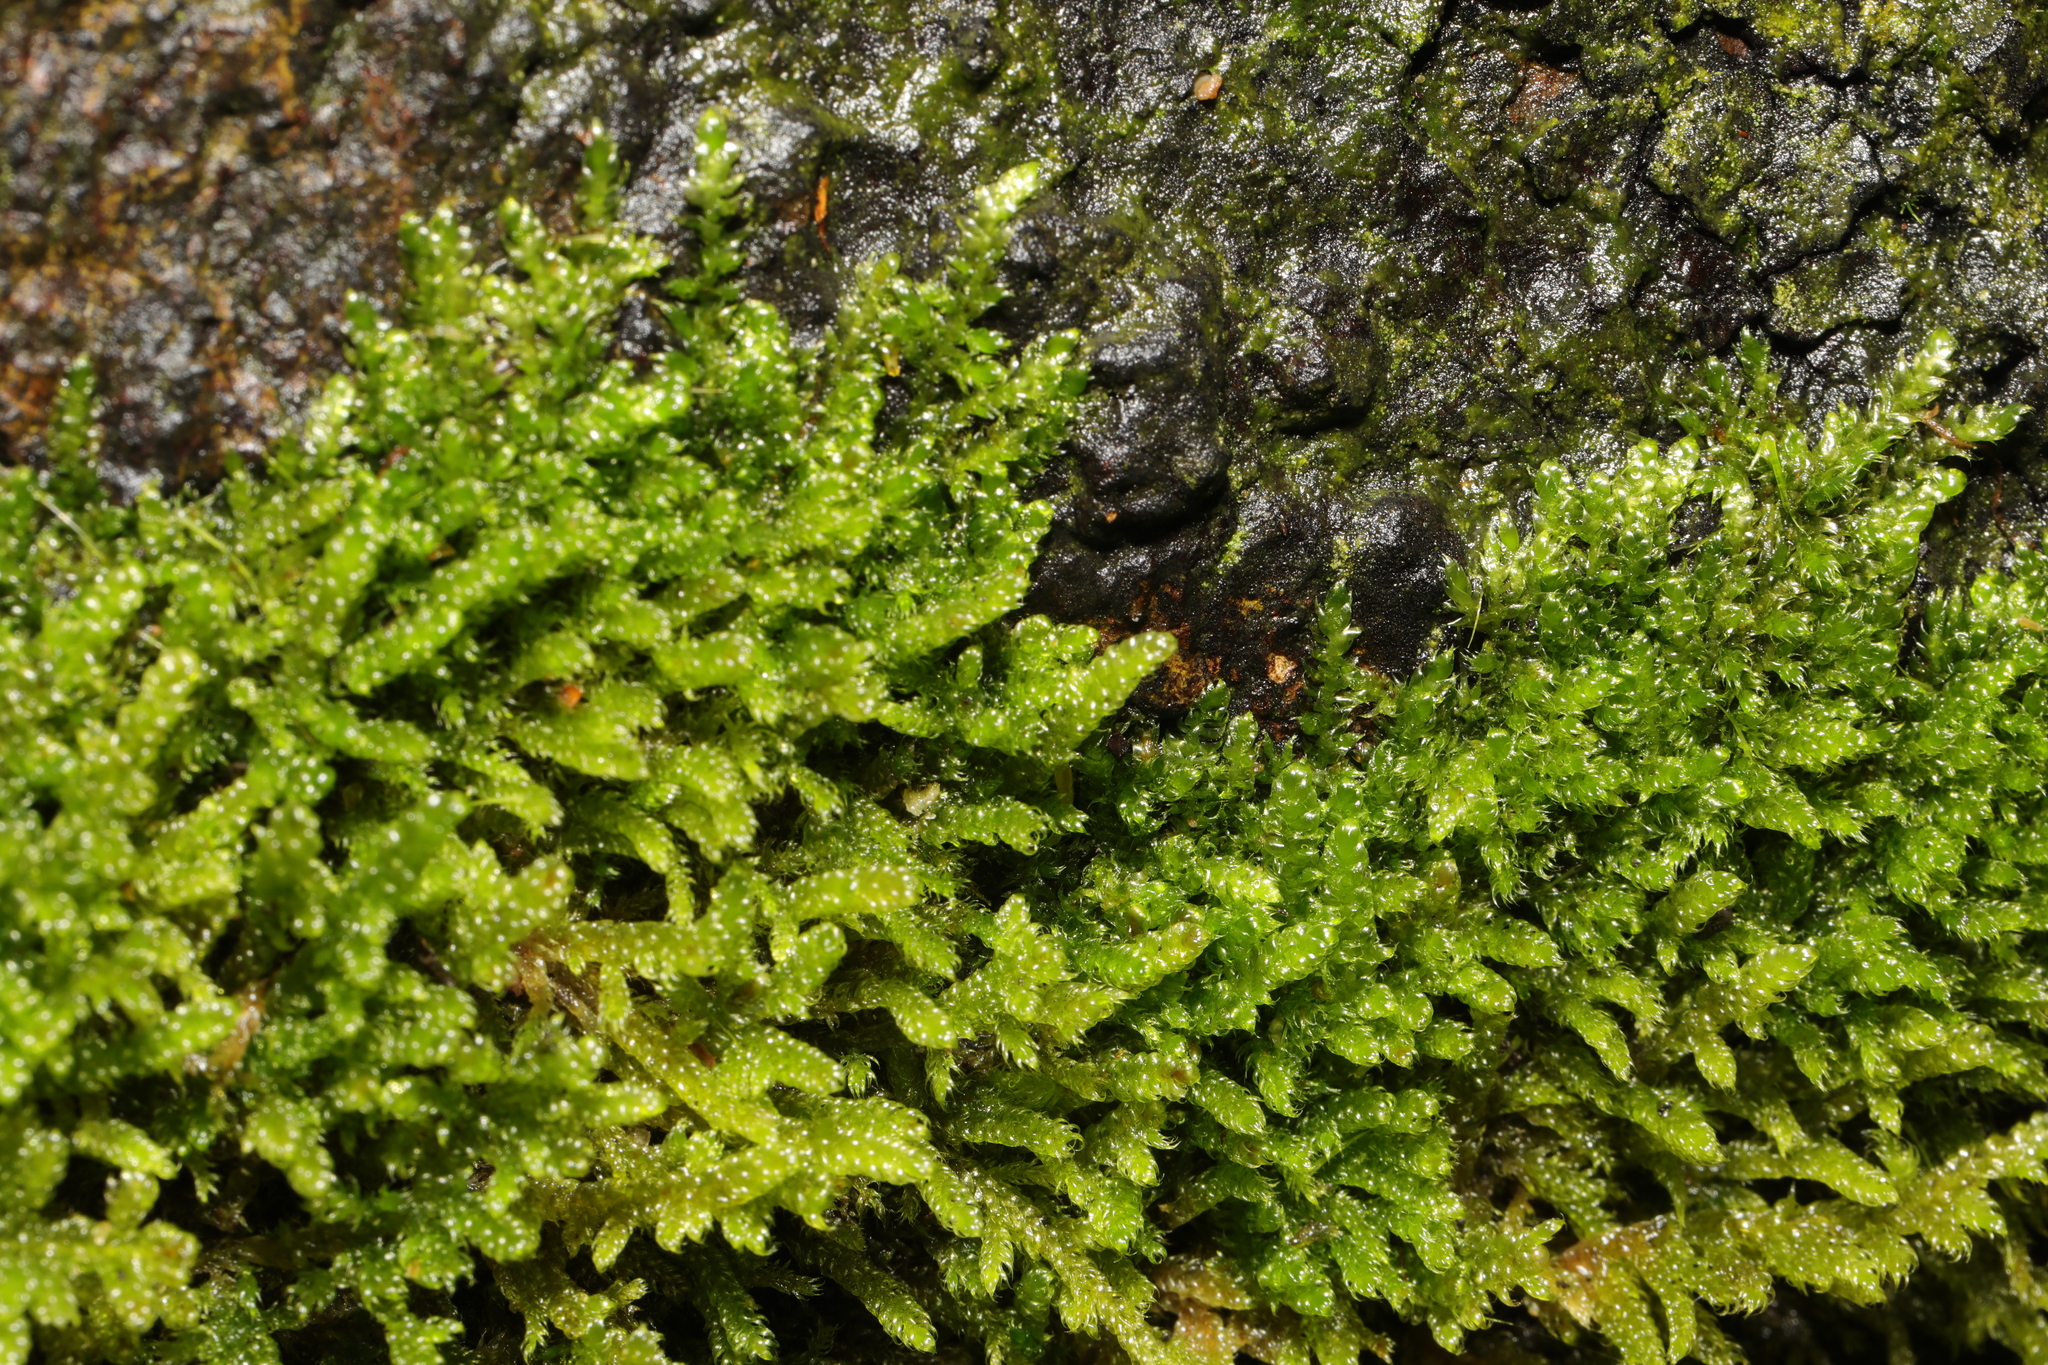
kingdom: Plantae
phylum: Bryophyta
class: Bryopsida
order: Hypnales
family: Hypnaceae
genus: Hypnum
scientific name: Hypnum cupressiforme
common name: Cypress-leaved plait-moss
